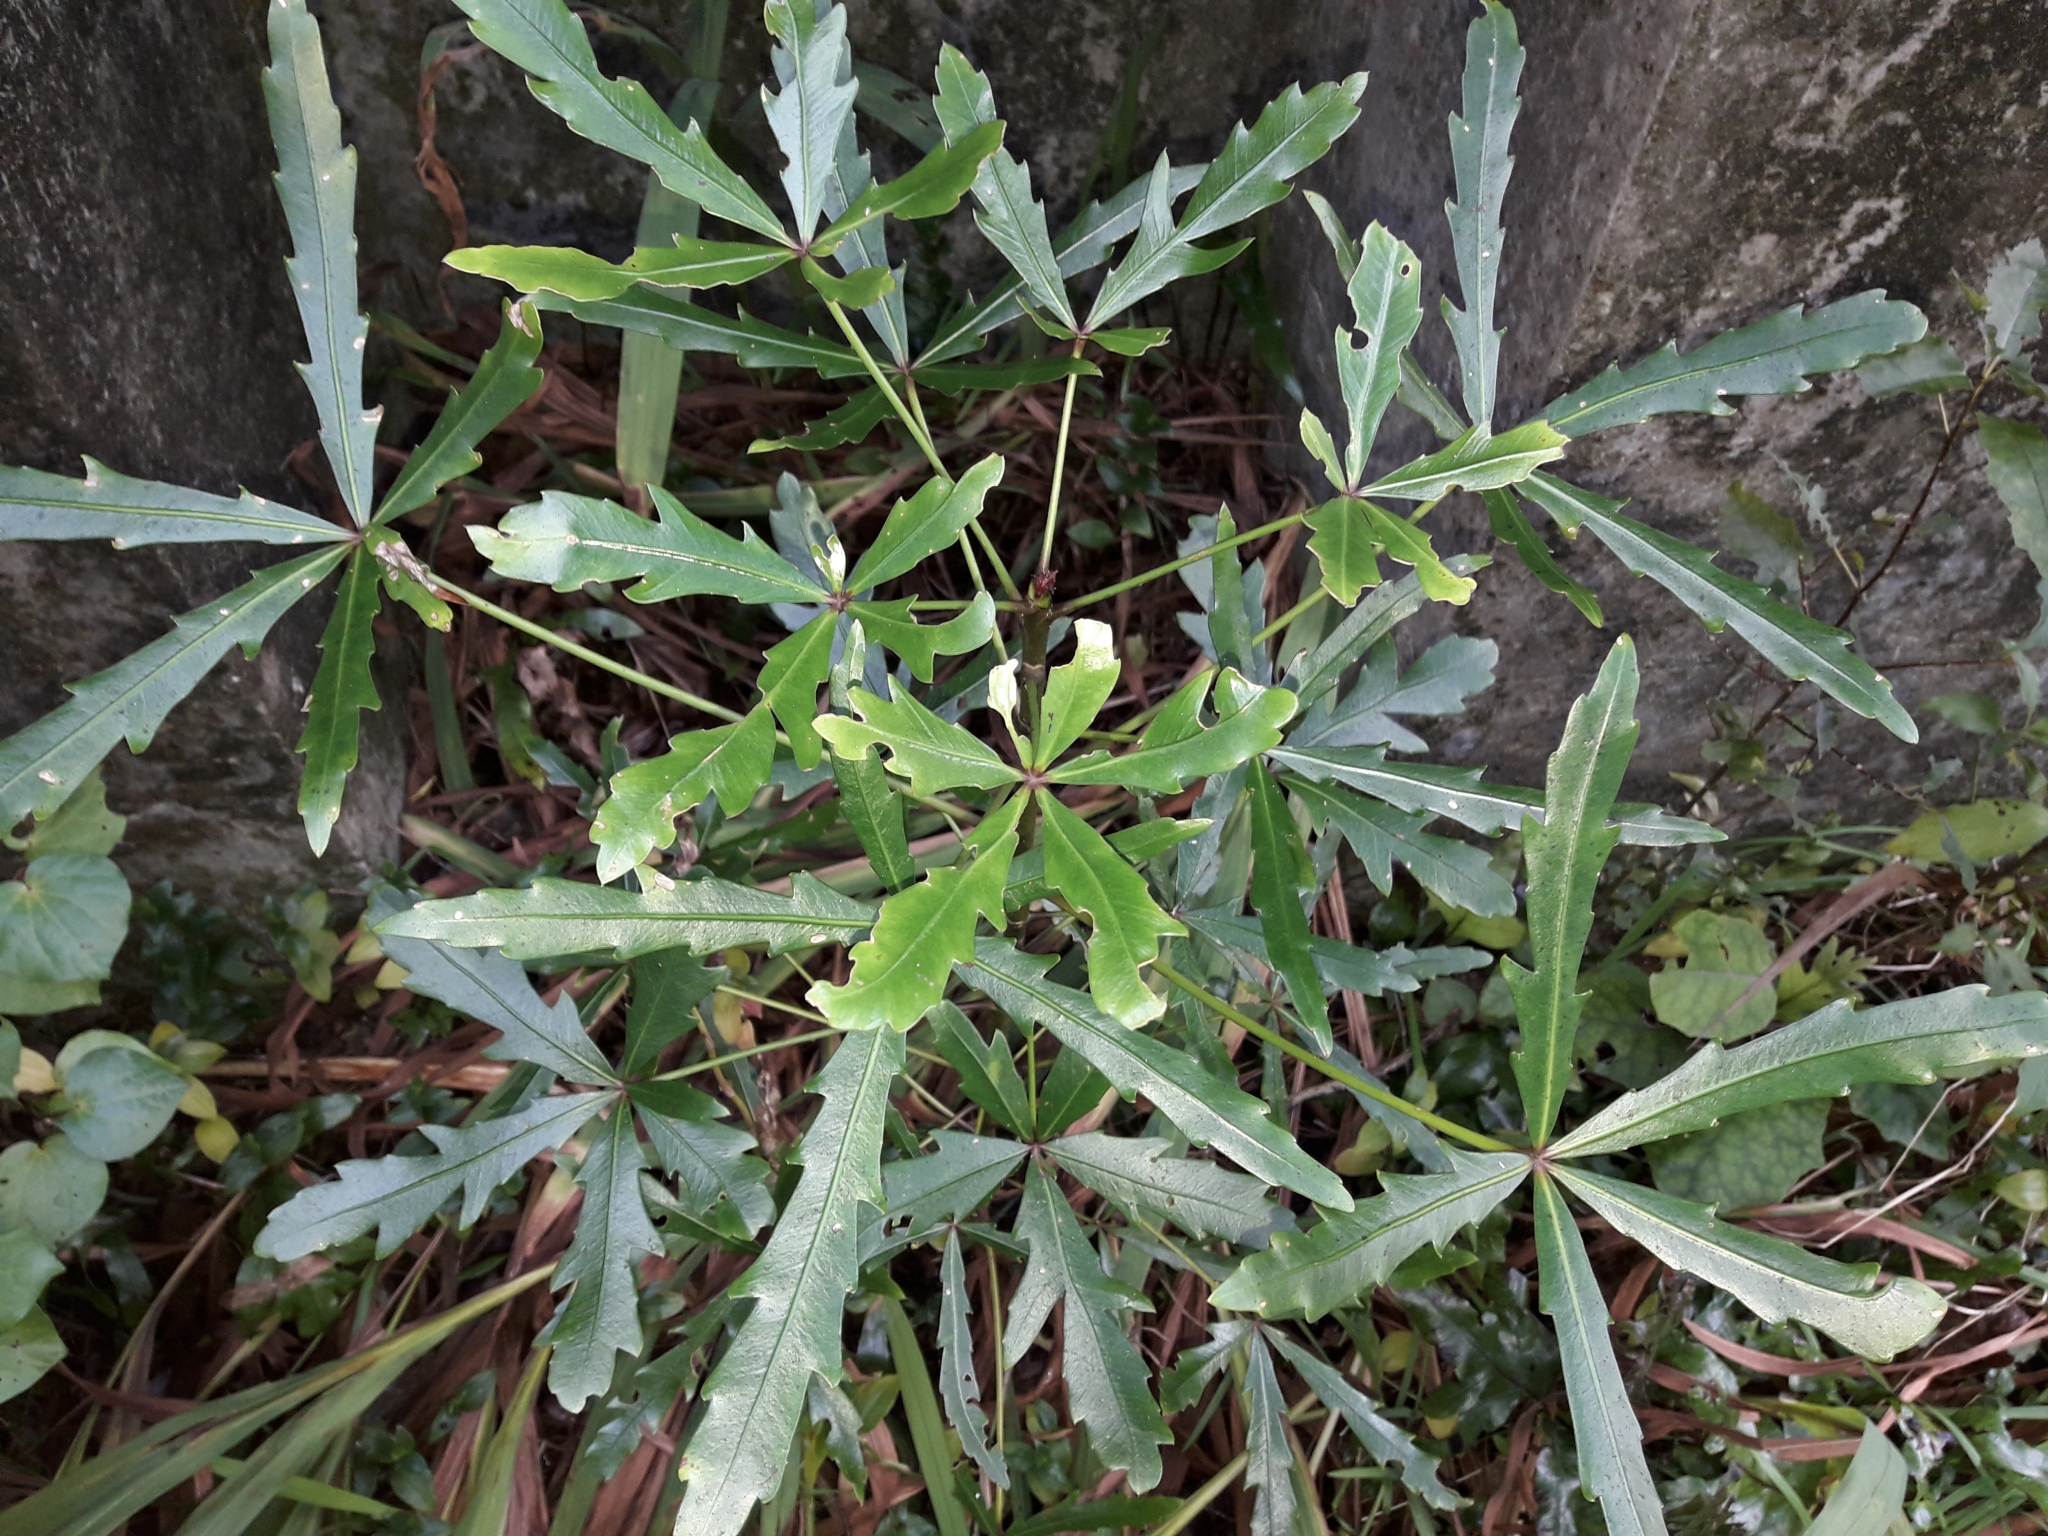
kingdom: Plantae
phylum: Tracheophyta
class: Magnoliopsida
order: Apiales
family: Araliaceae
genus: Pseudopanax
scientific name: Pseudopanax
